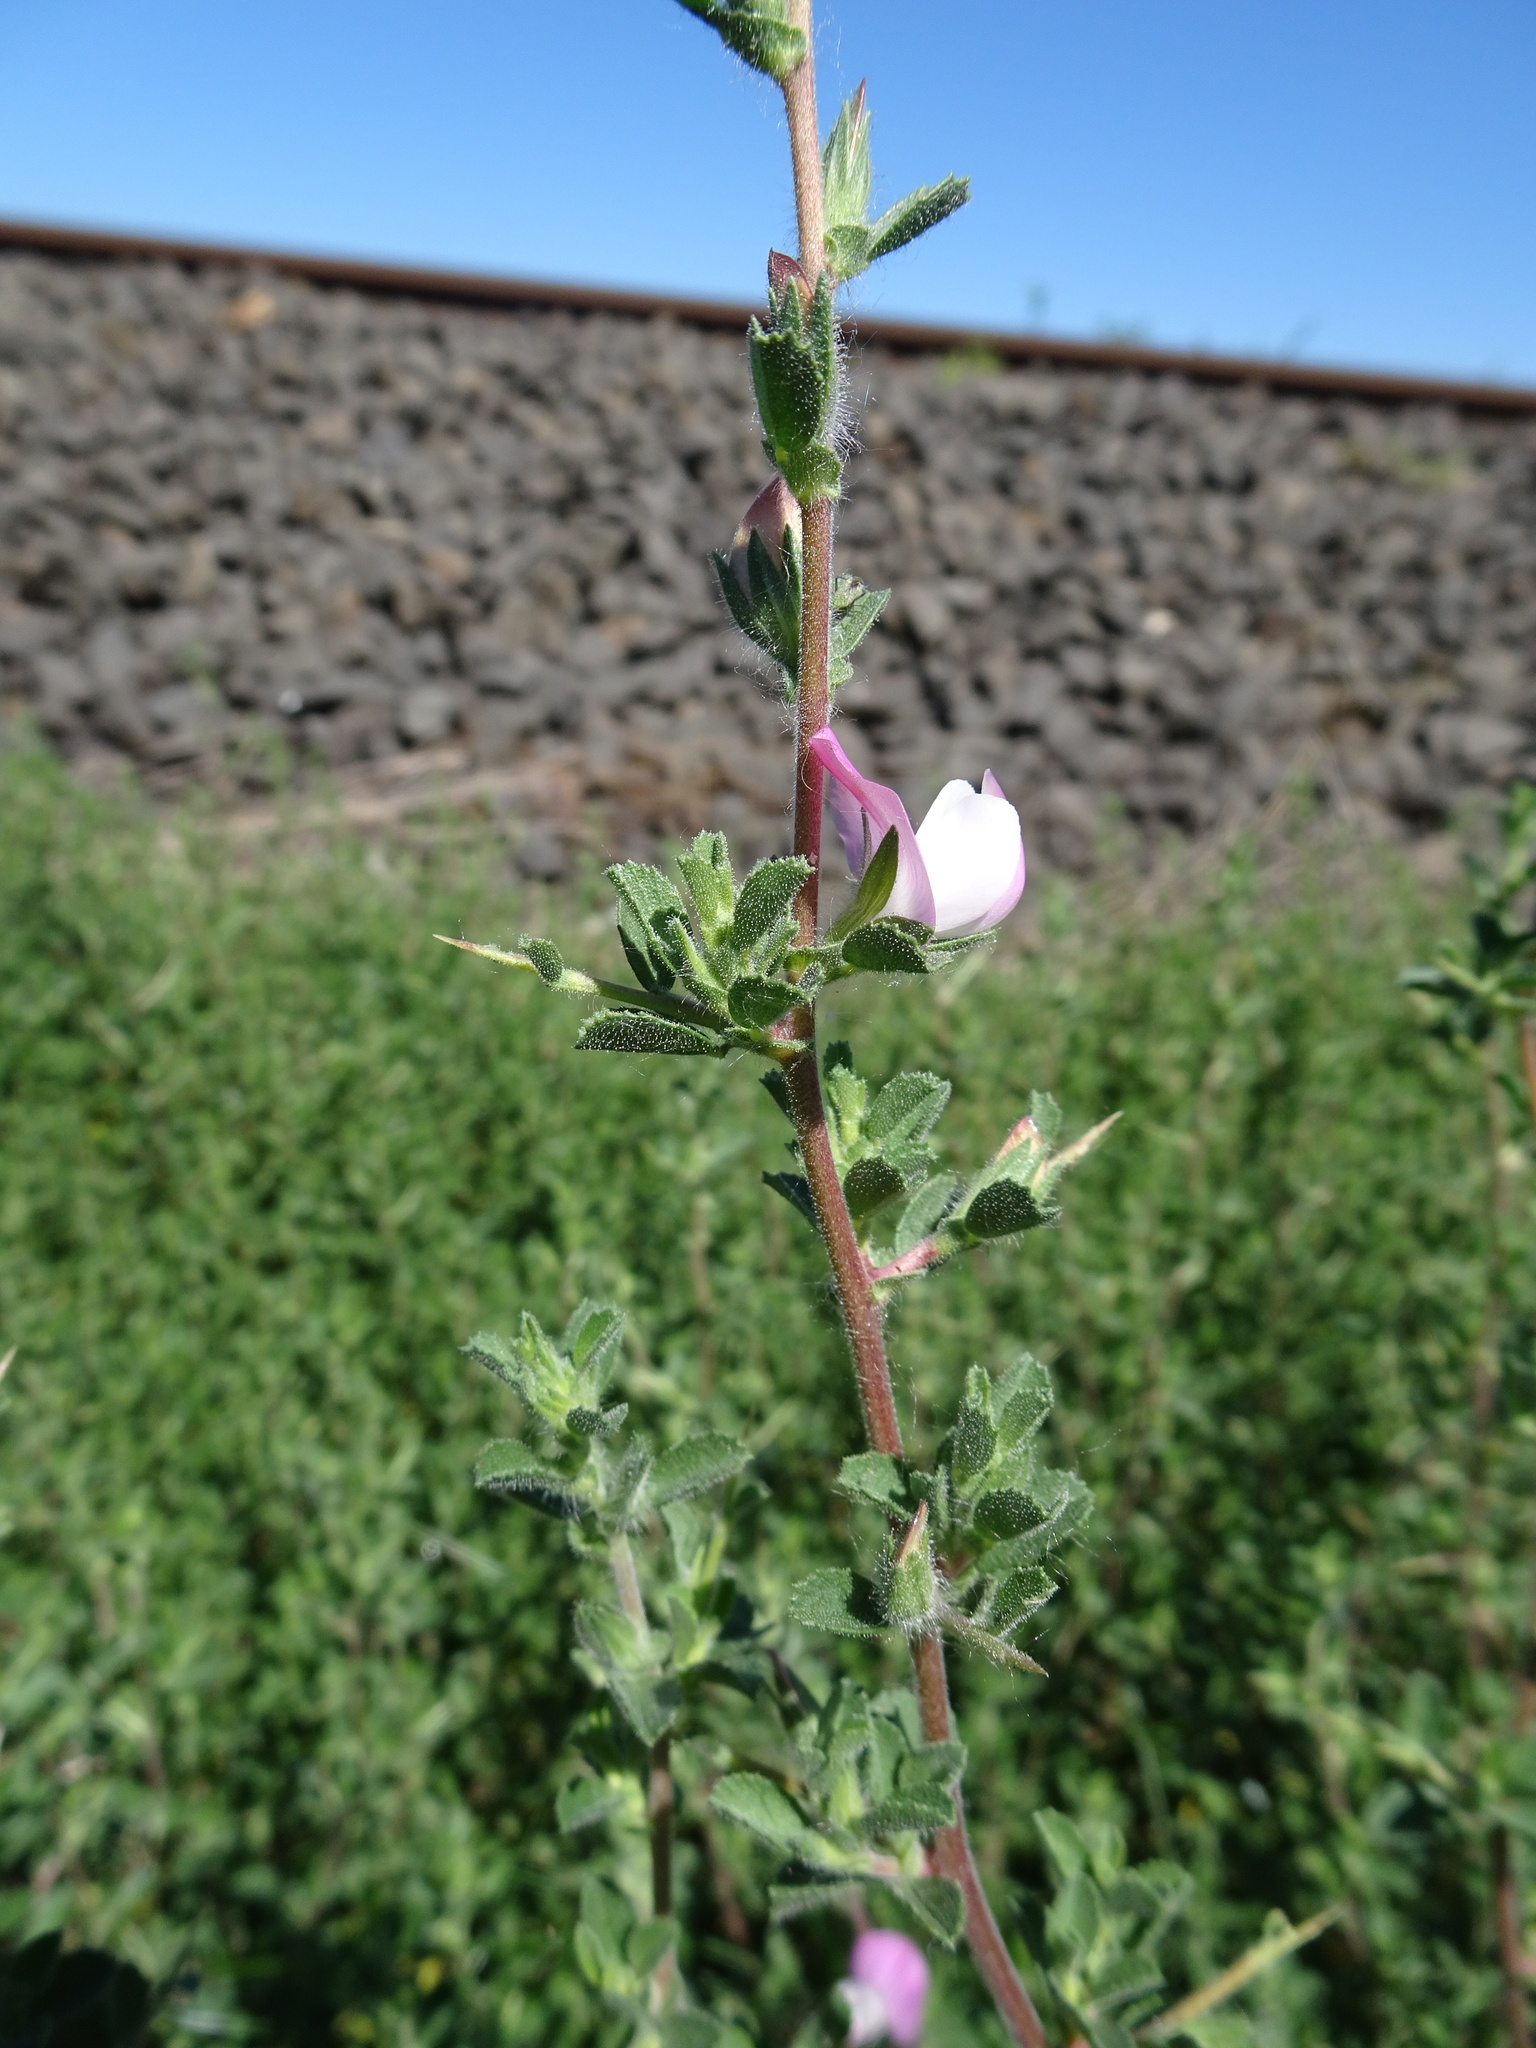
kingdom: Plantae
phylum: Tracheophyta
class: Magnoliopsida
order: Fabales
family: Fabaceae
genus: Ononis
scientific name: Ononis spinosa
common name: Spiny restharrow
